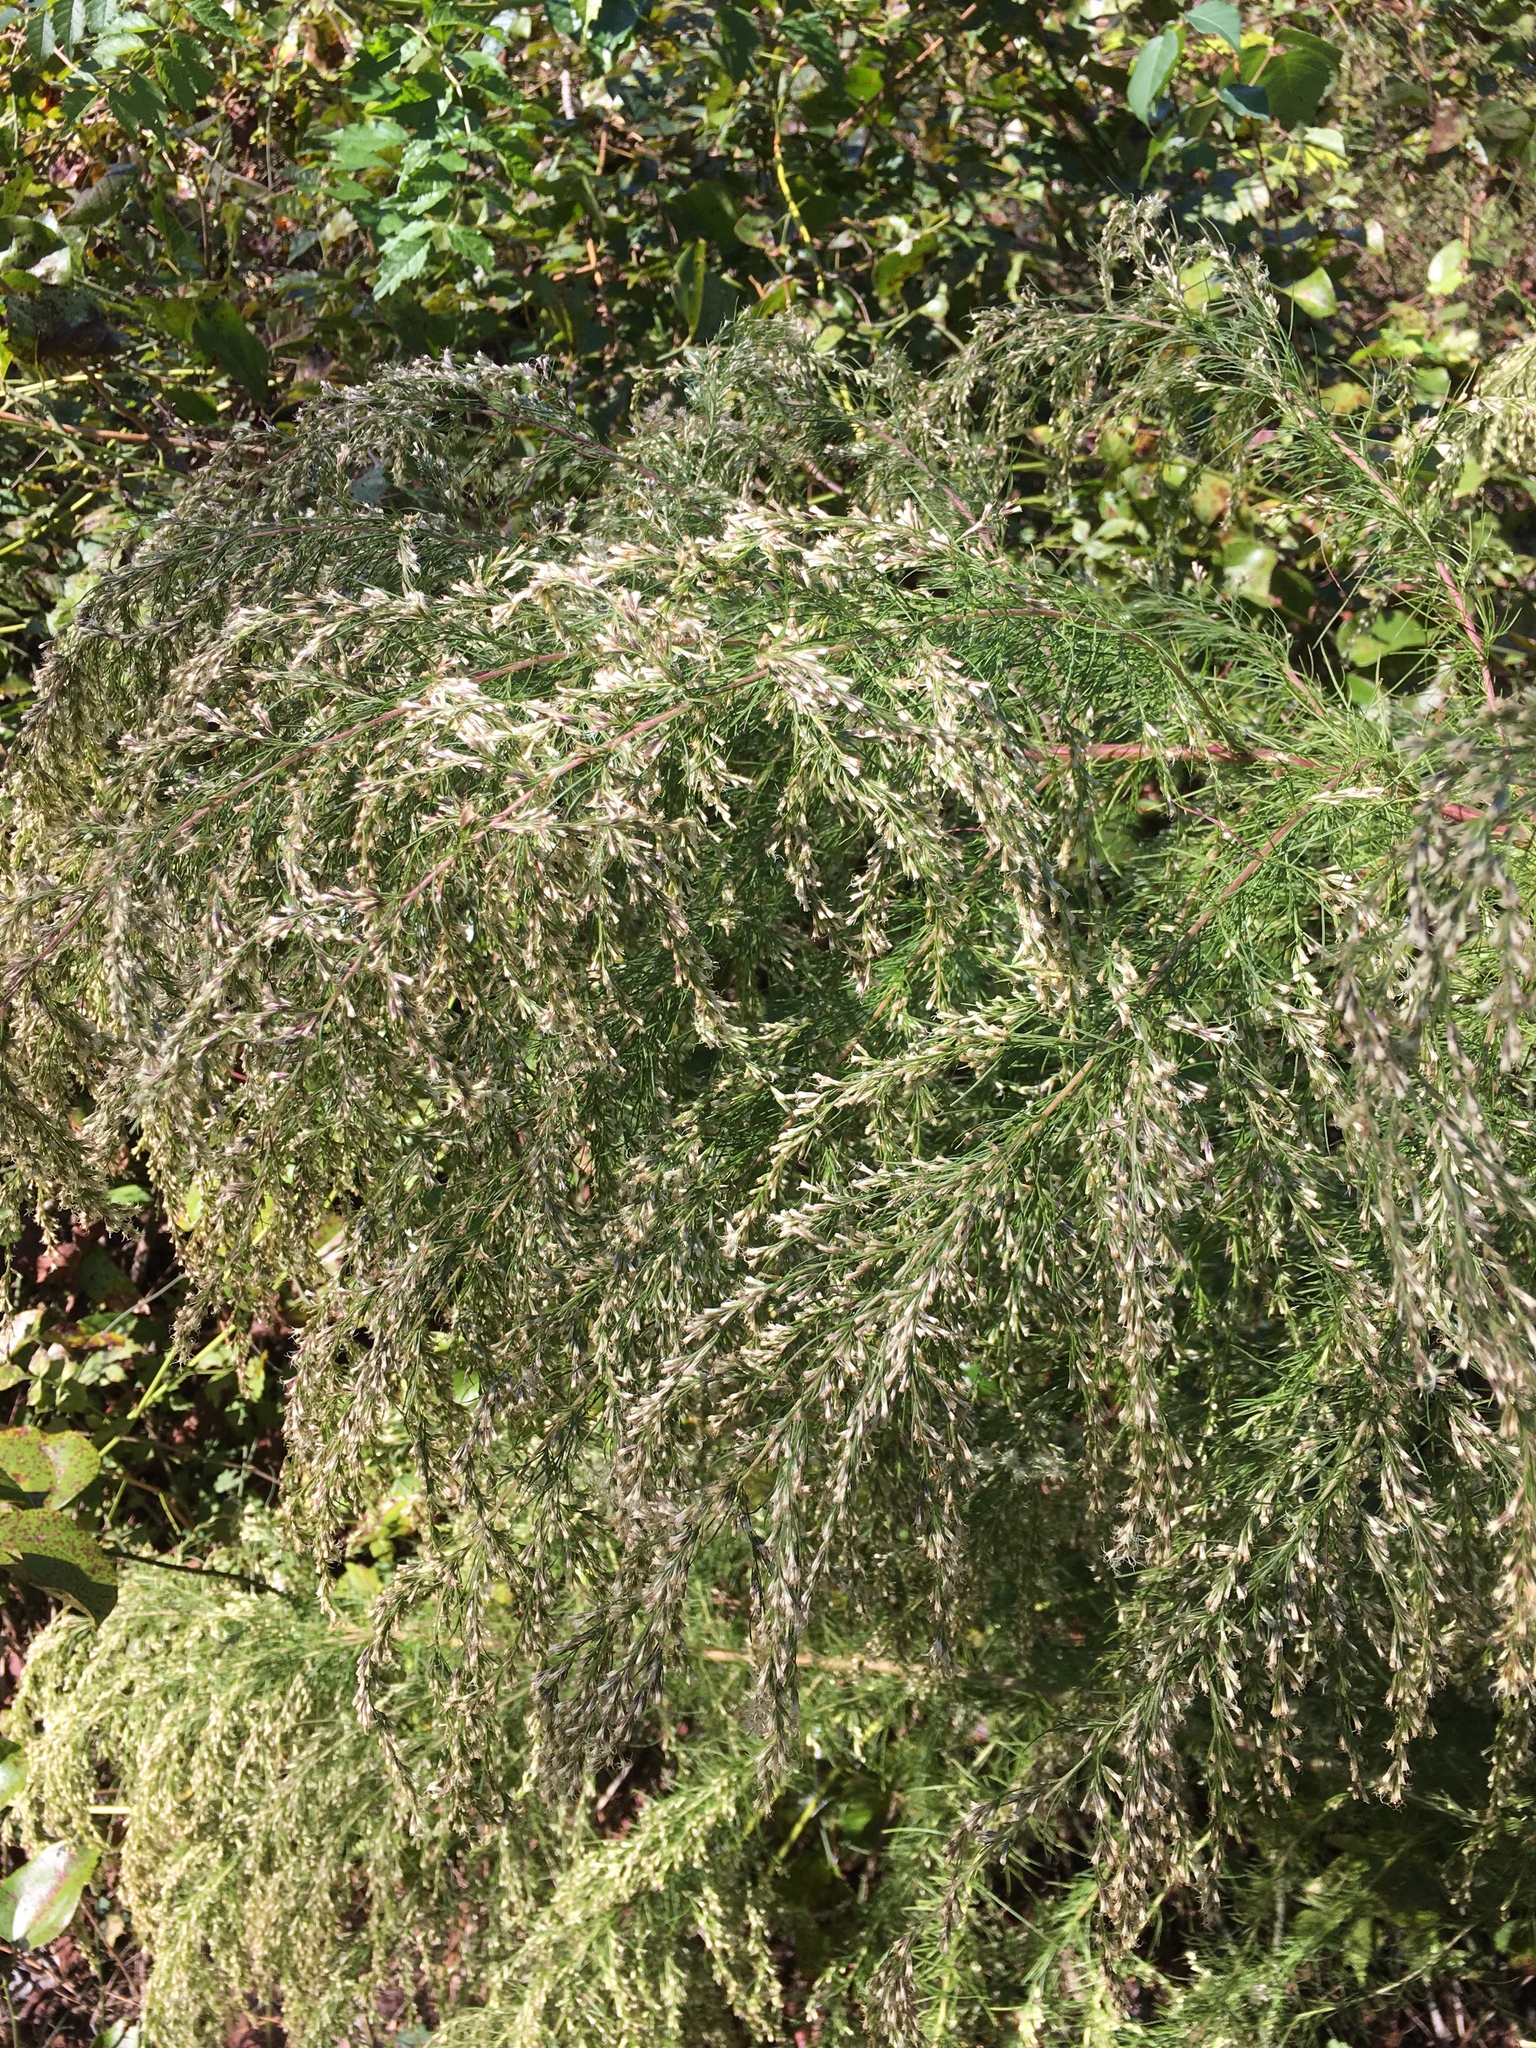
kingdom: Plantae
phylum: Tracheophyta
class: Magnoliopsida
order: Asterales
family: Asteraceae
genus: Eupatorium
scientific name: Eupatorium capillifolium
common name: Dog-fennel
